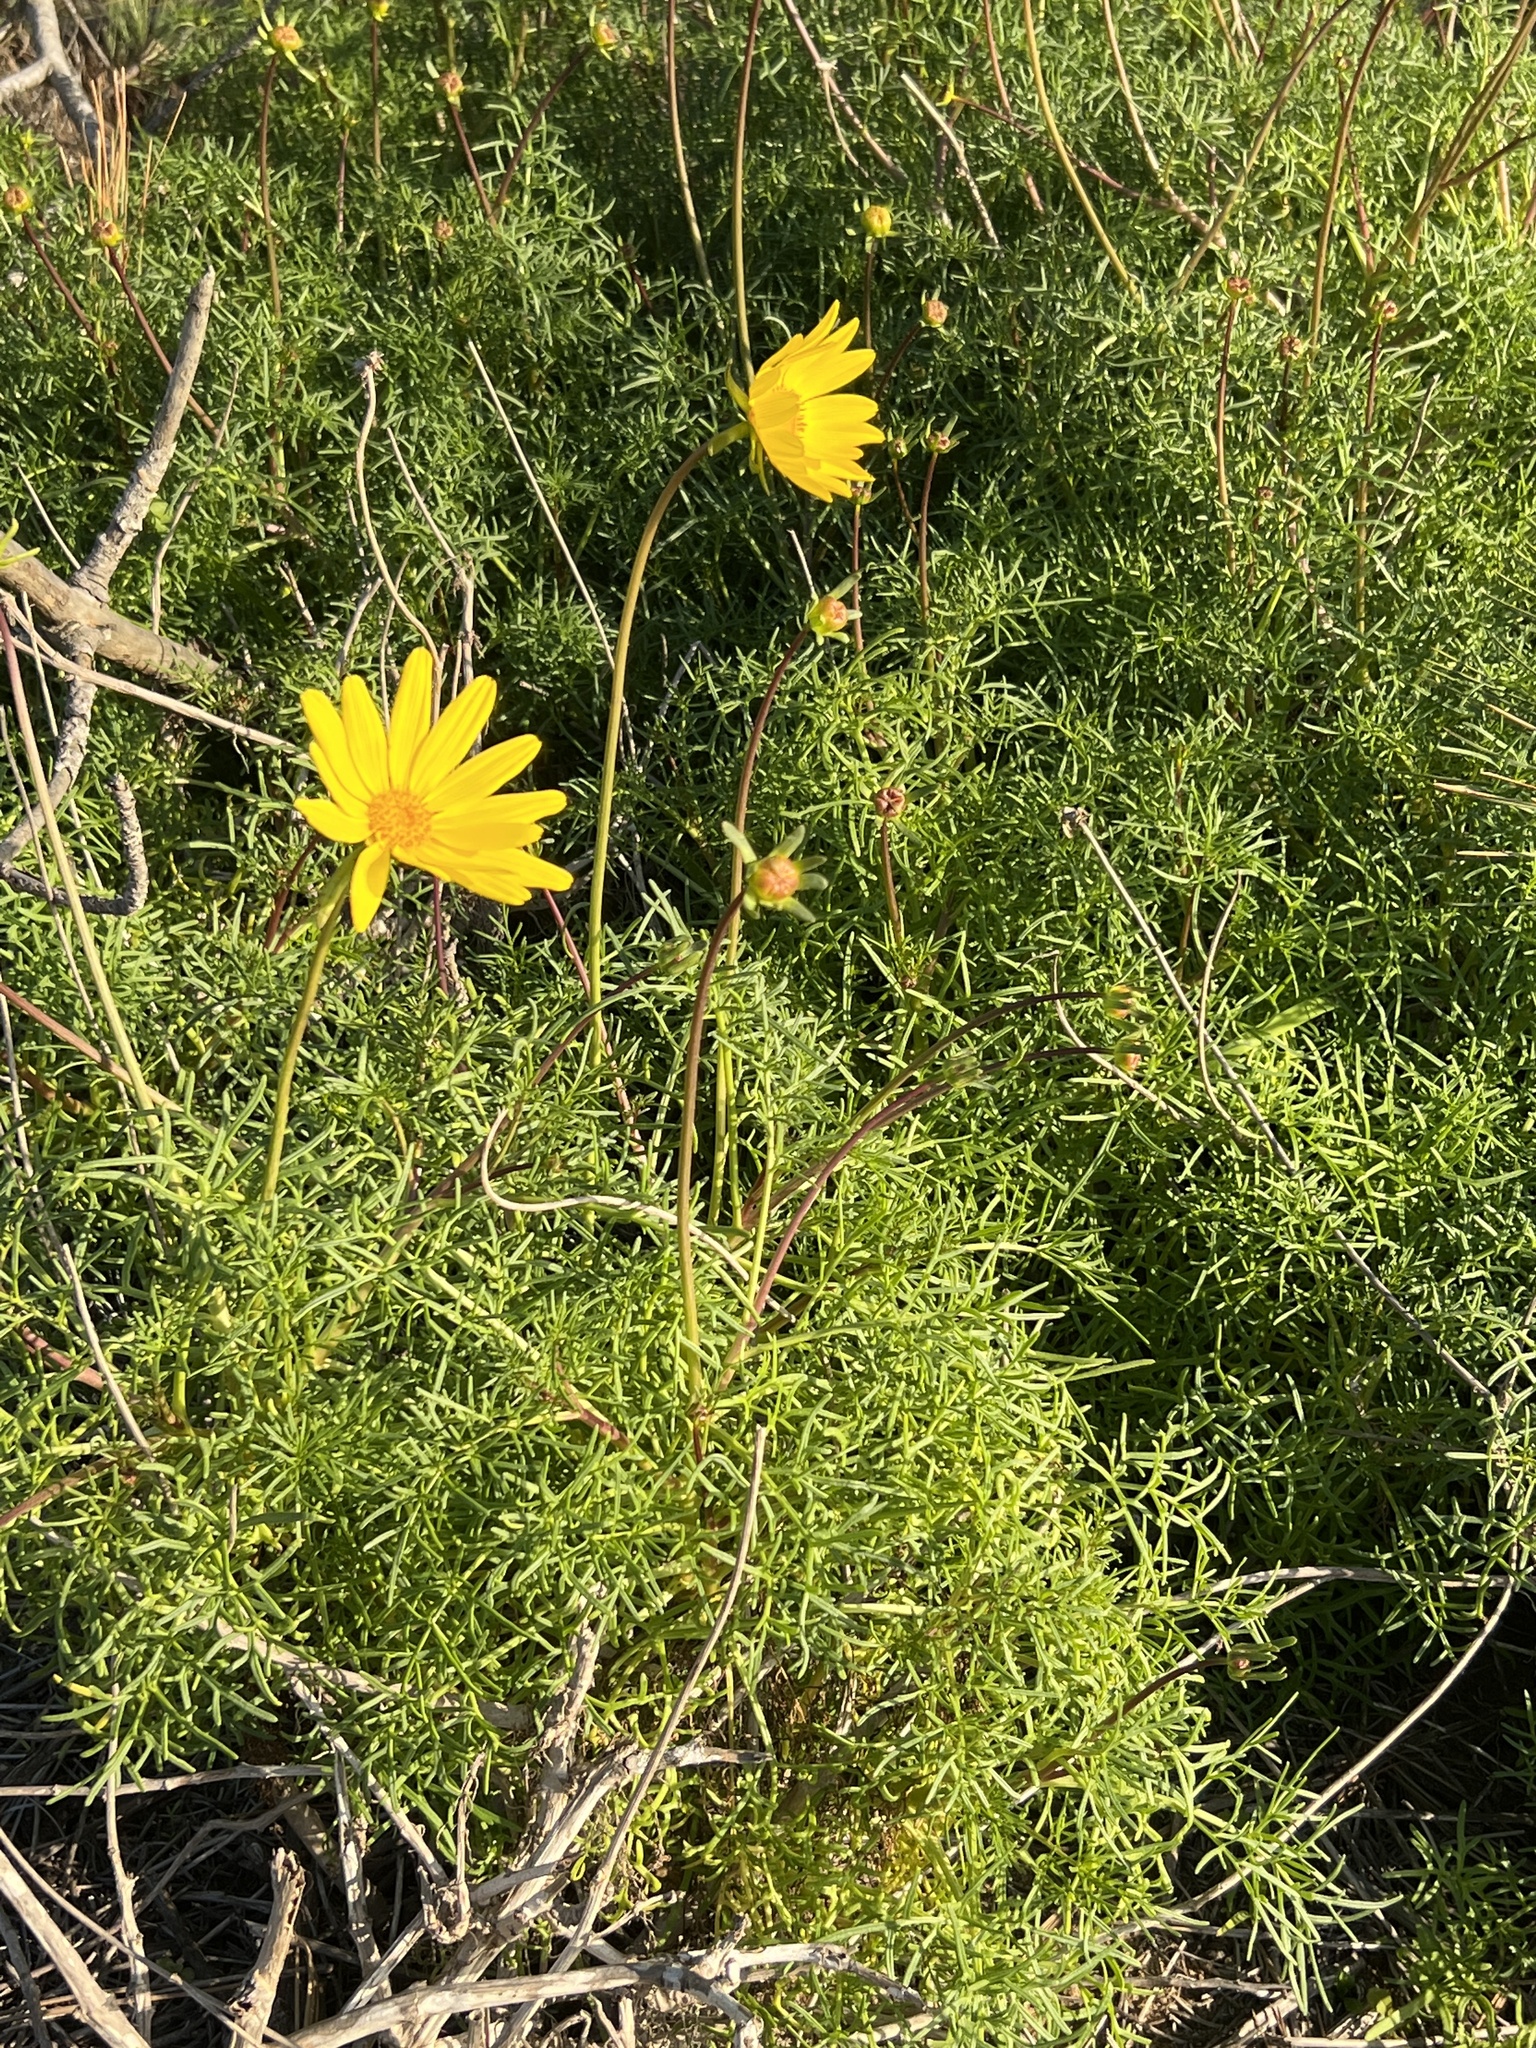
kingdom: Plantae
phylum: Tracheophyta
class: Magnoliopsida
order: Asterales
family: Asteraceae
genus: Coreopsis
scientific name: Coreopsis maritima
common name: Sea-dahlia
